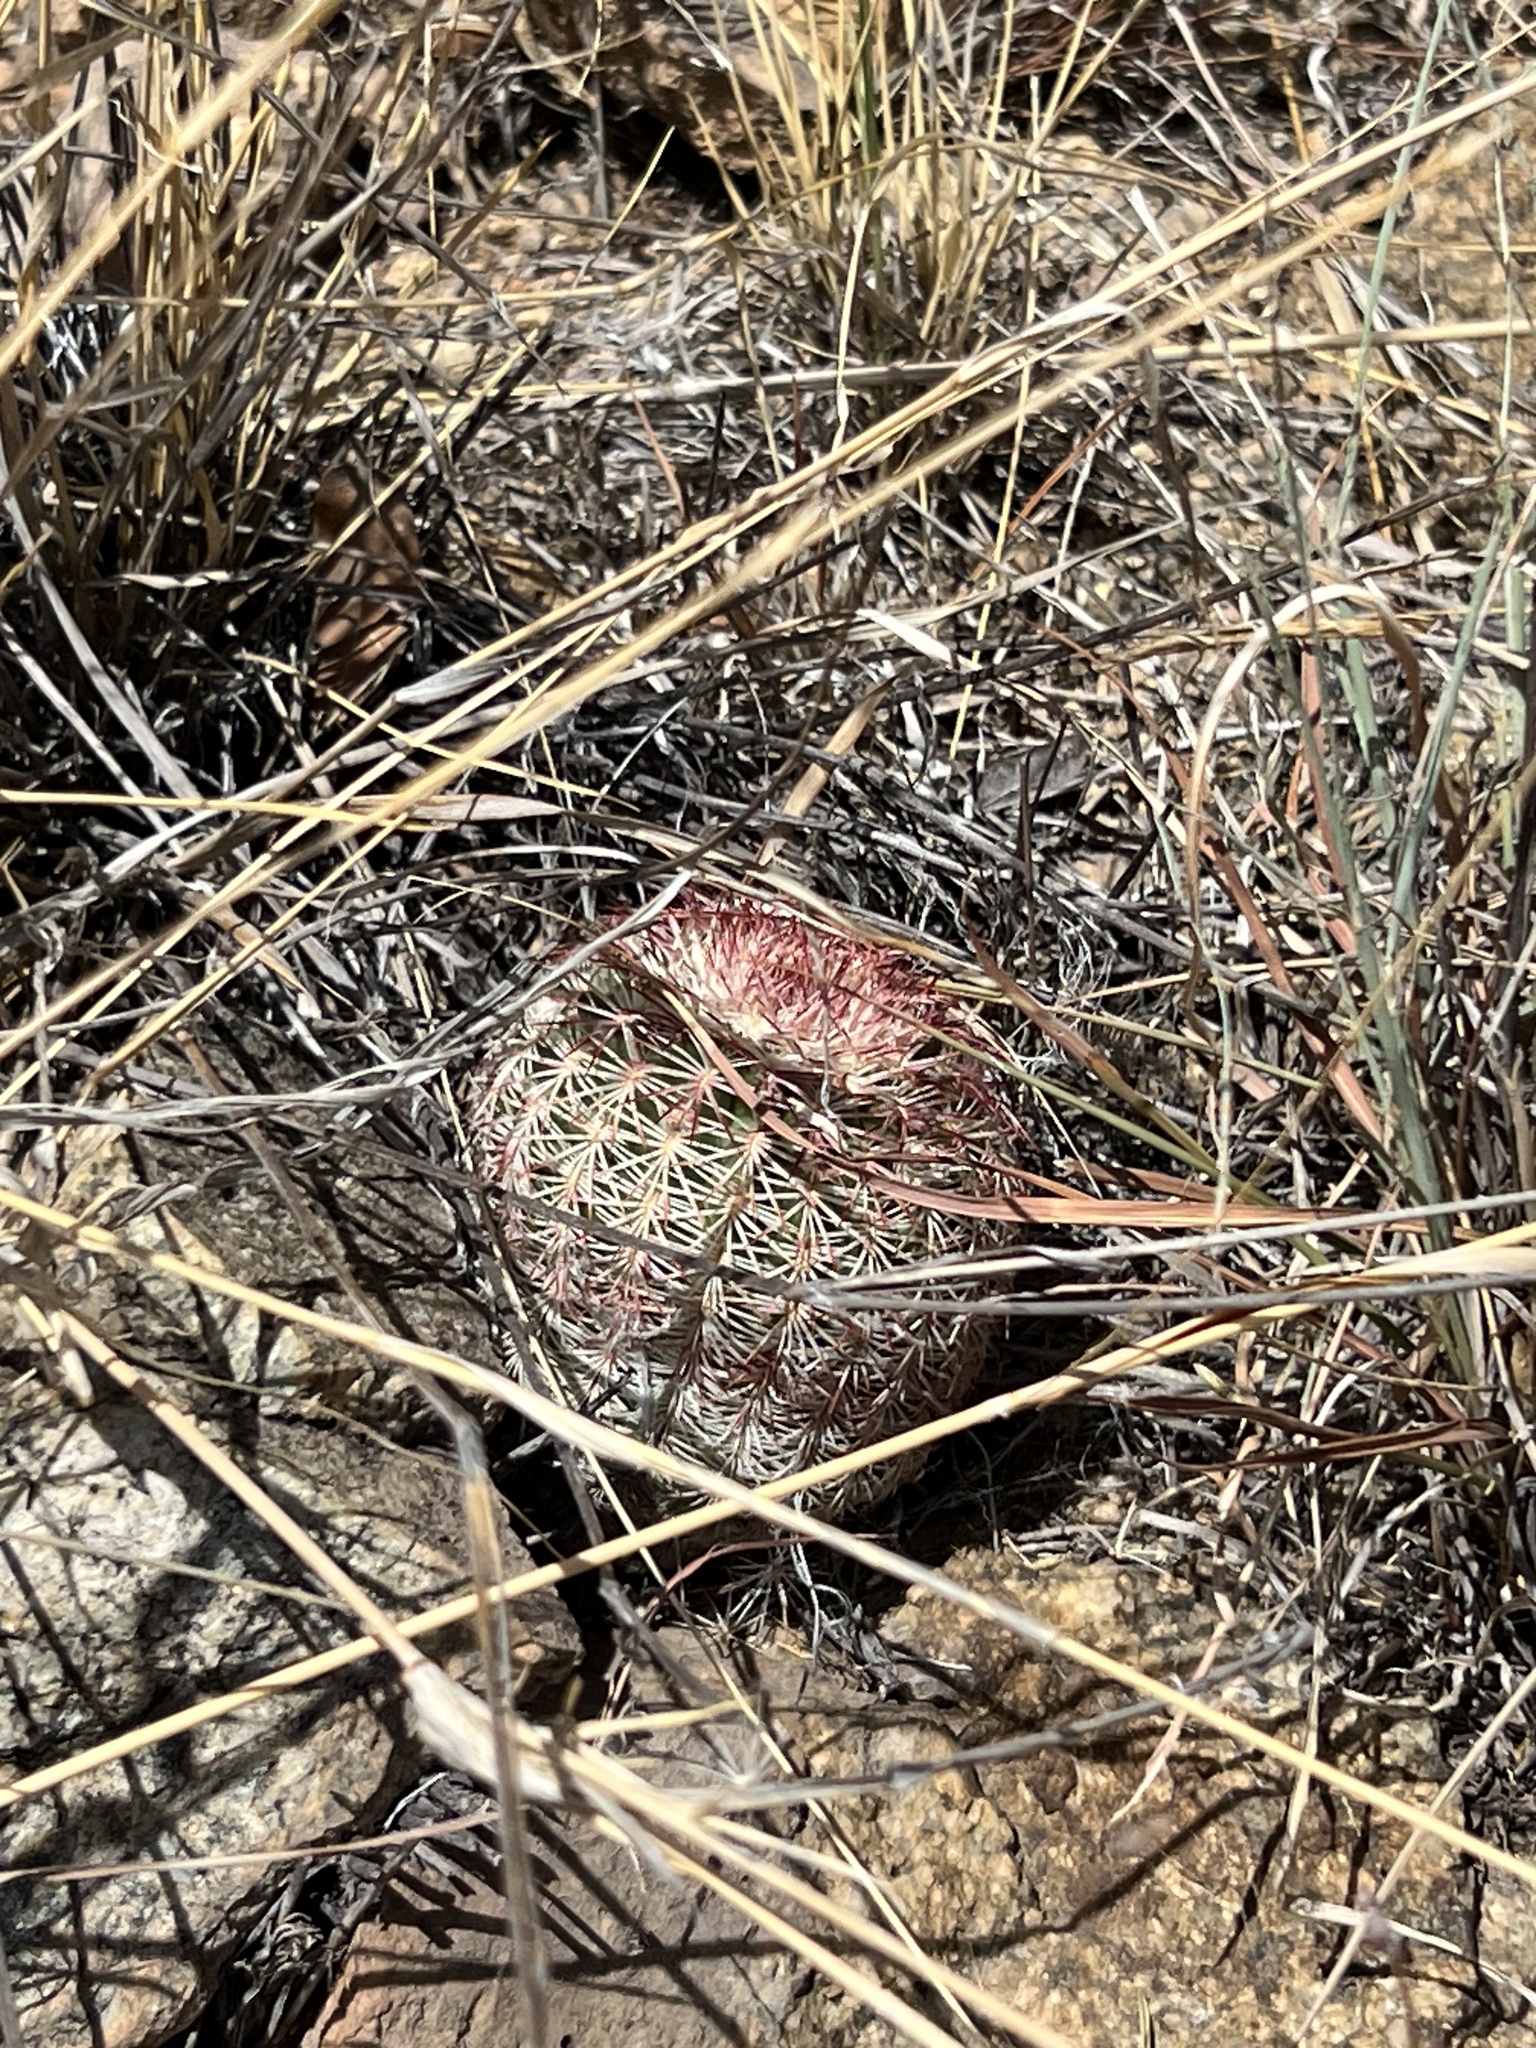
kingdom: Plantae
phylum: Tracheophyta
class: Magnoliopsida
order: Caryophyllales
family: Cactaceae
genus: Echinocereus
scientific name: Echinocereus rigidissimus
